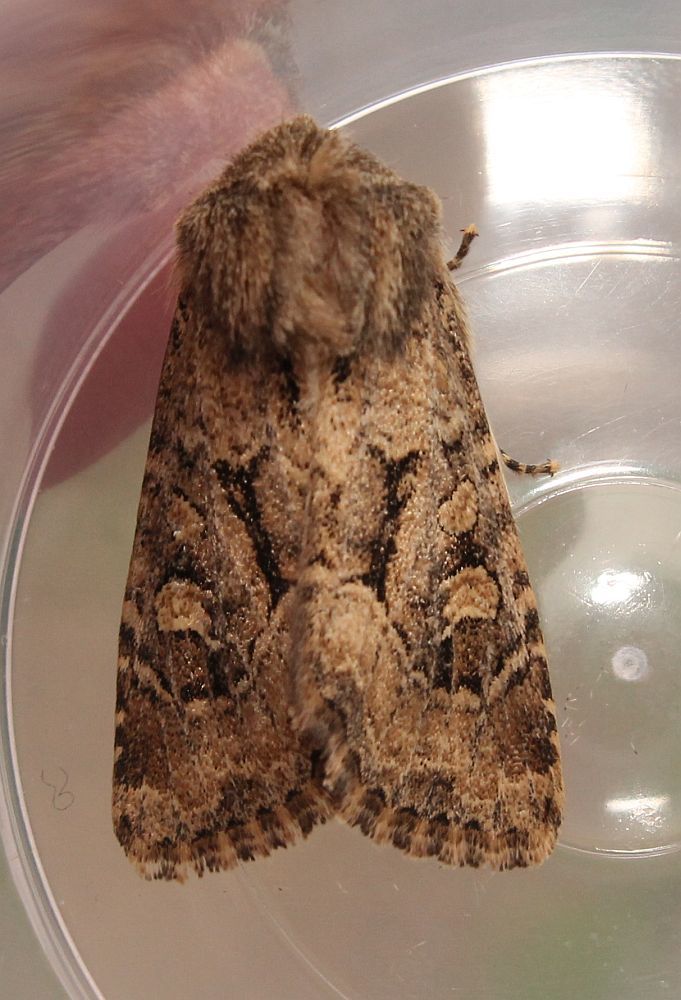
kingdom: Animalia
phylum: Arthropoda
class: Insecta
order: Lepidoptera
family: Noctuidae
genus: Luperina
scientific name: Luperina testacea
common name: Flounced rustic
